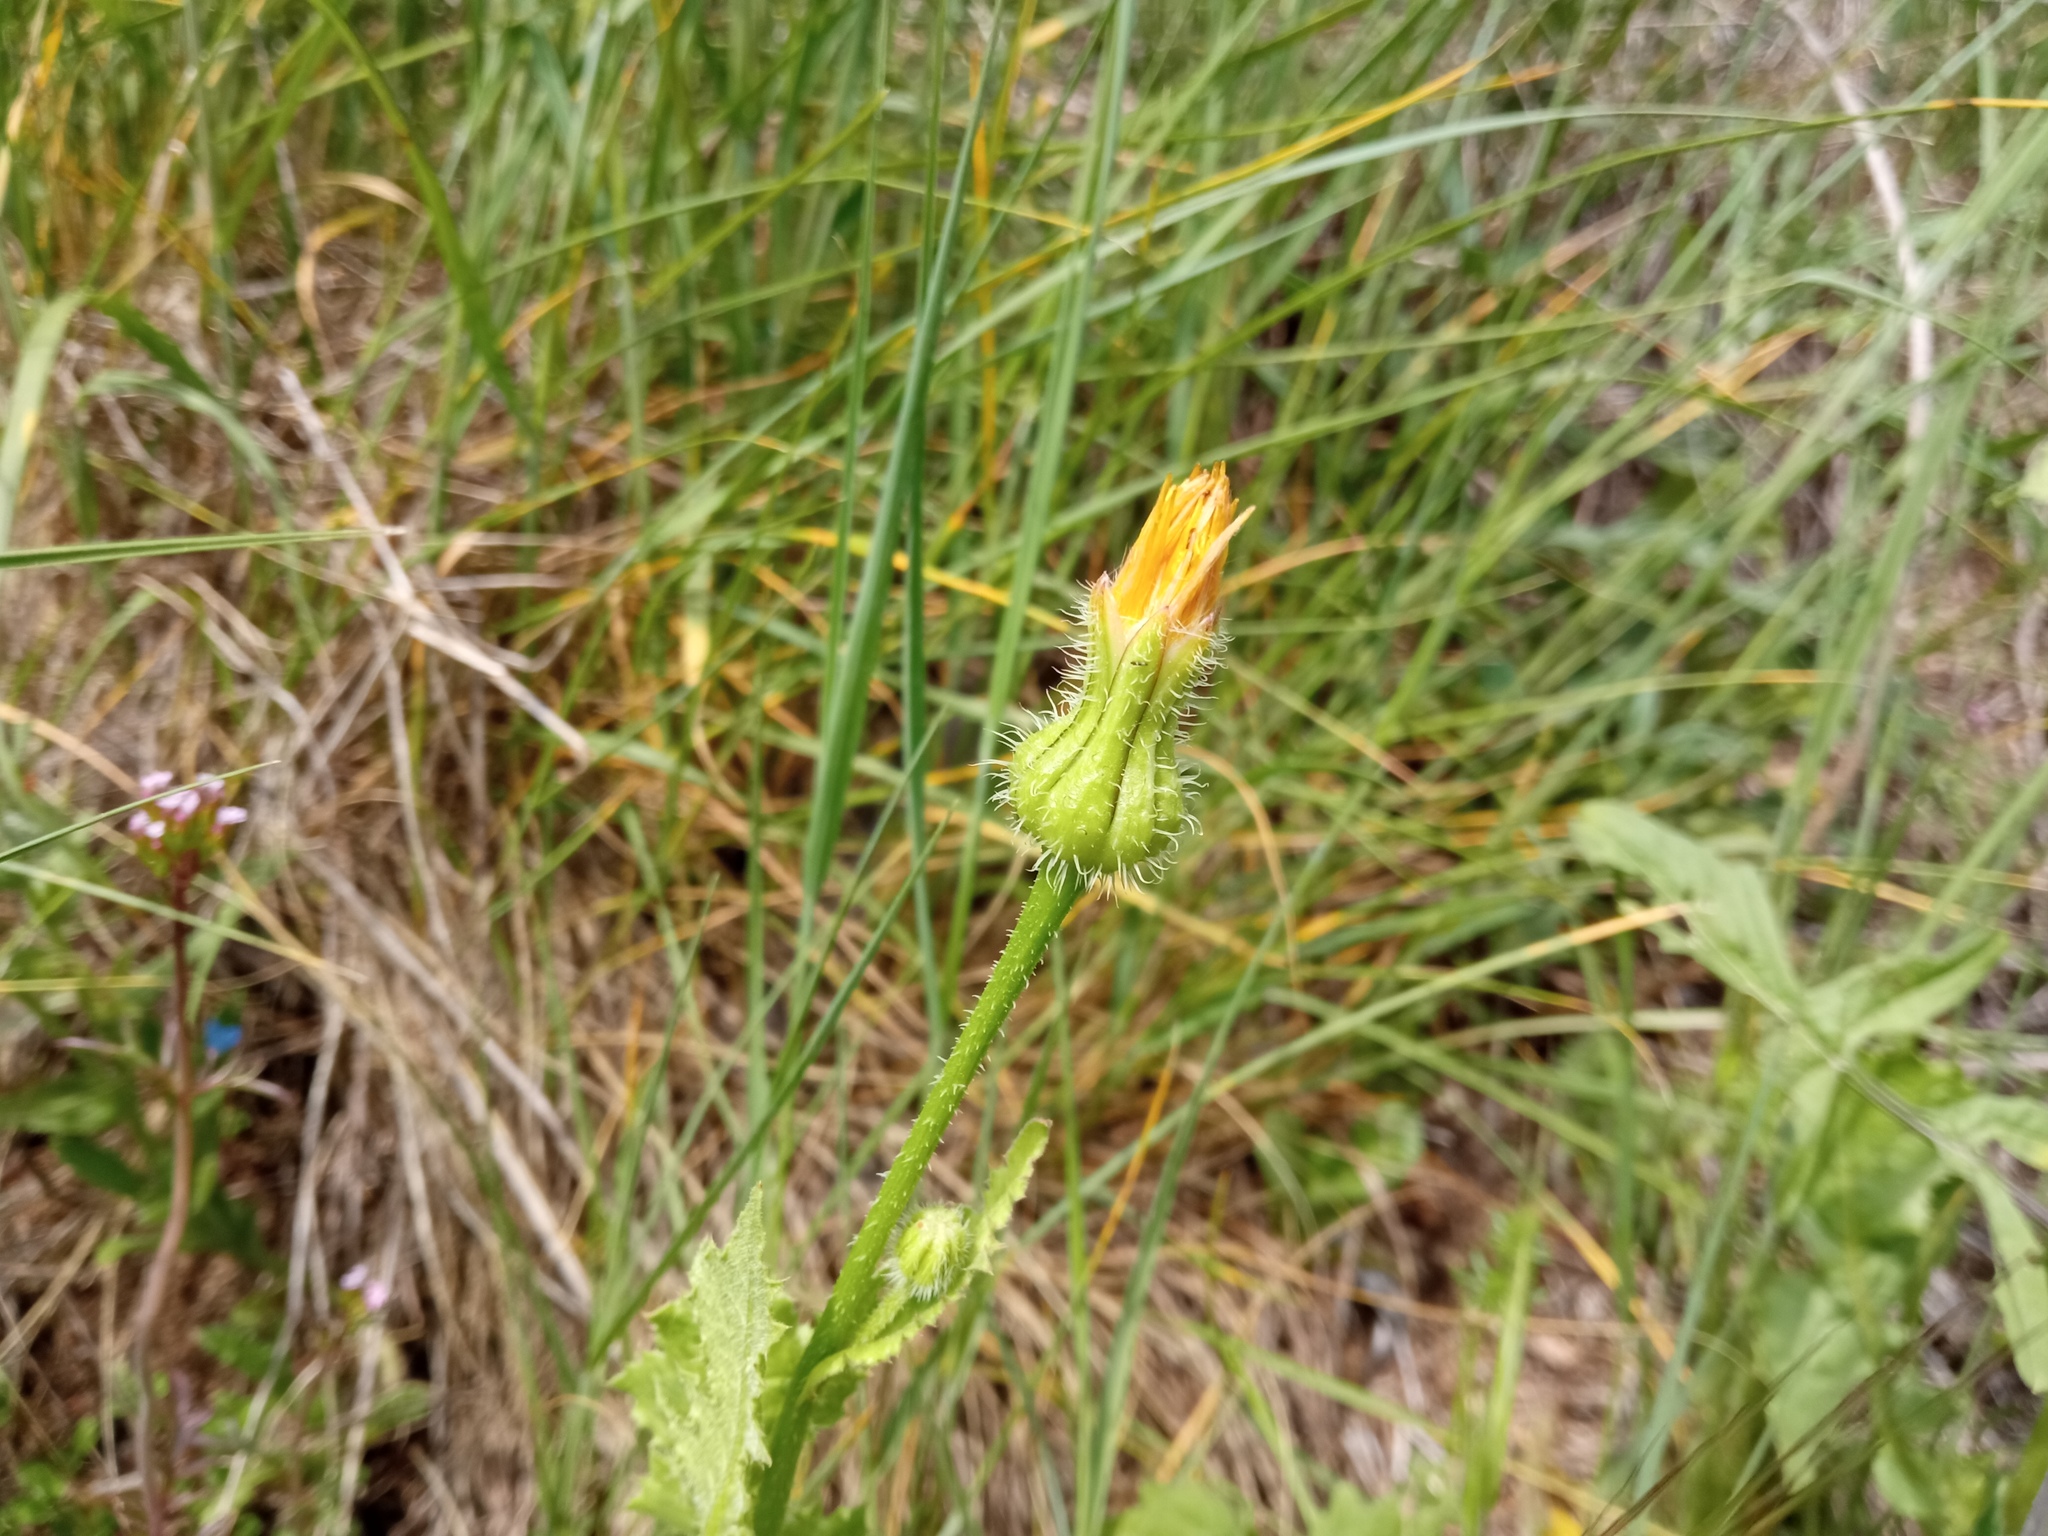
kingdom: Plantae
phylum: Tracheophyta
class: Magnoliopsida
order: Asterales
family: Asteraceae
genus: Urospermum
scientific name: Urospermum picroides
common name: False hawkbit
